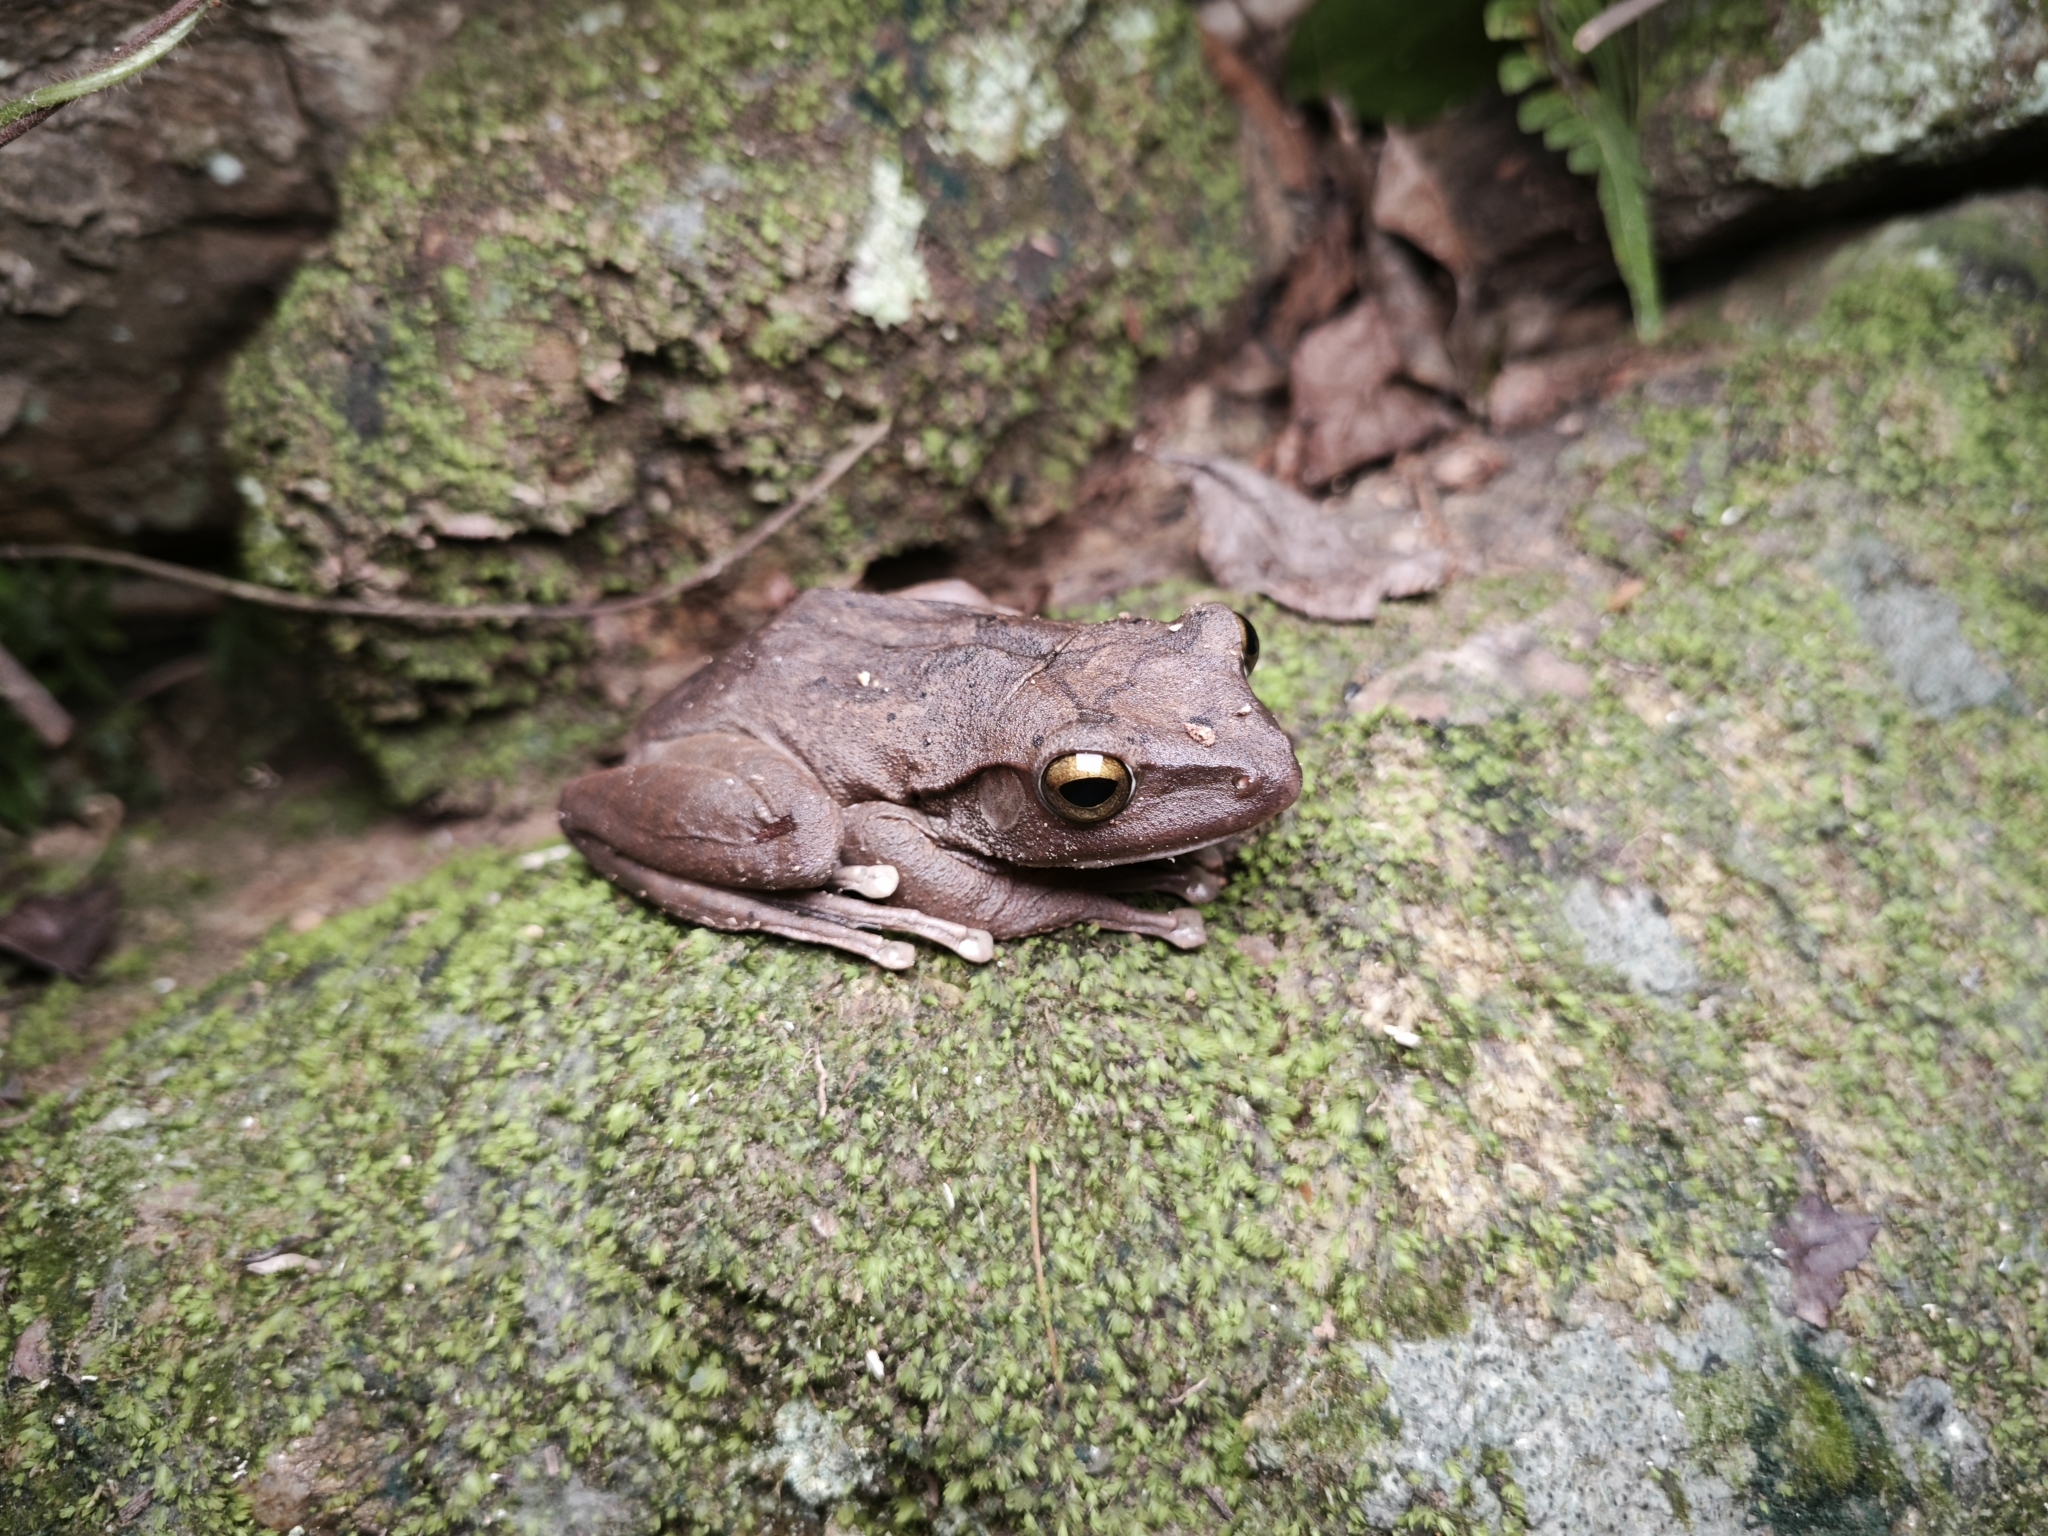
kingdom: Animalia
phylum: Chordata
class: Amphibia
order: Anura
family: Rhacophoridae
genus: Polypedates
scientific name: Polypedates megacephalus
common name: Hong kong whipping frog
